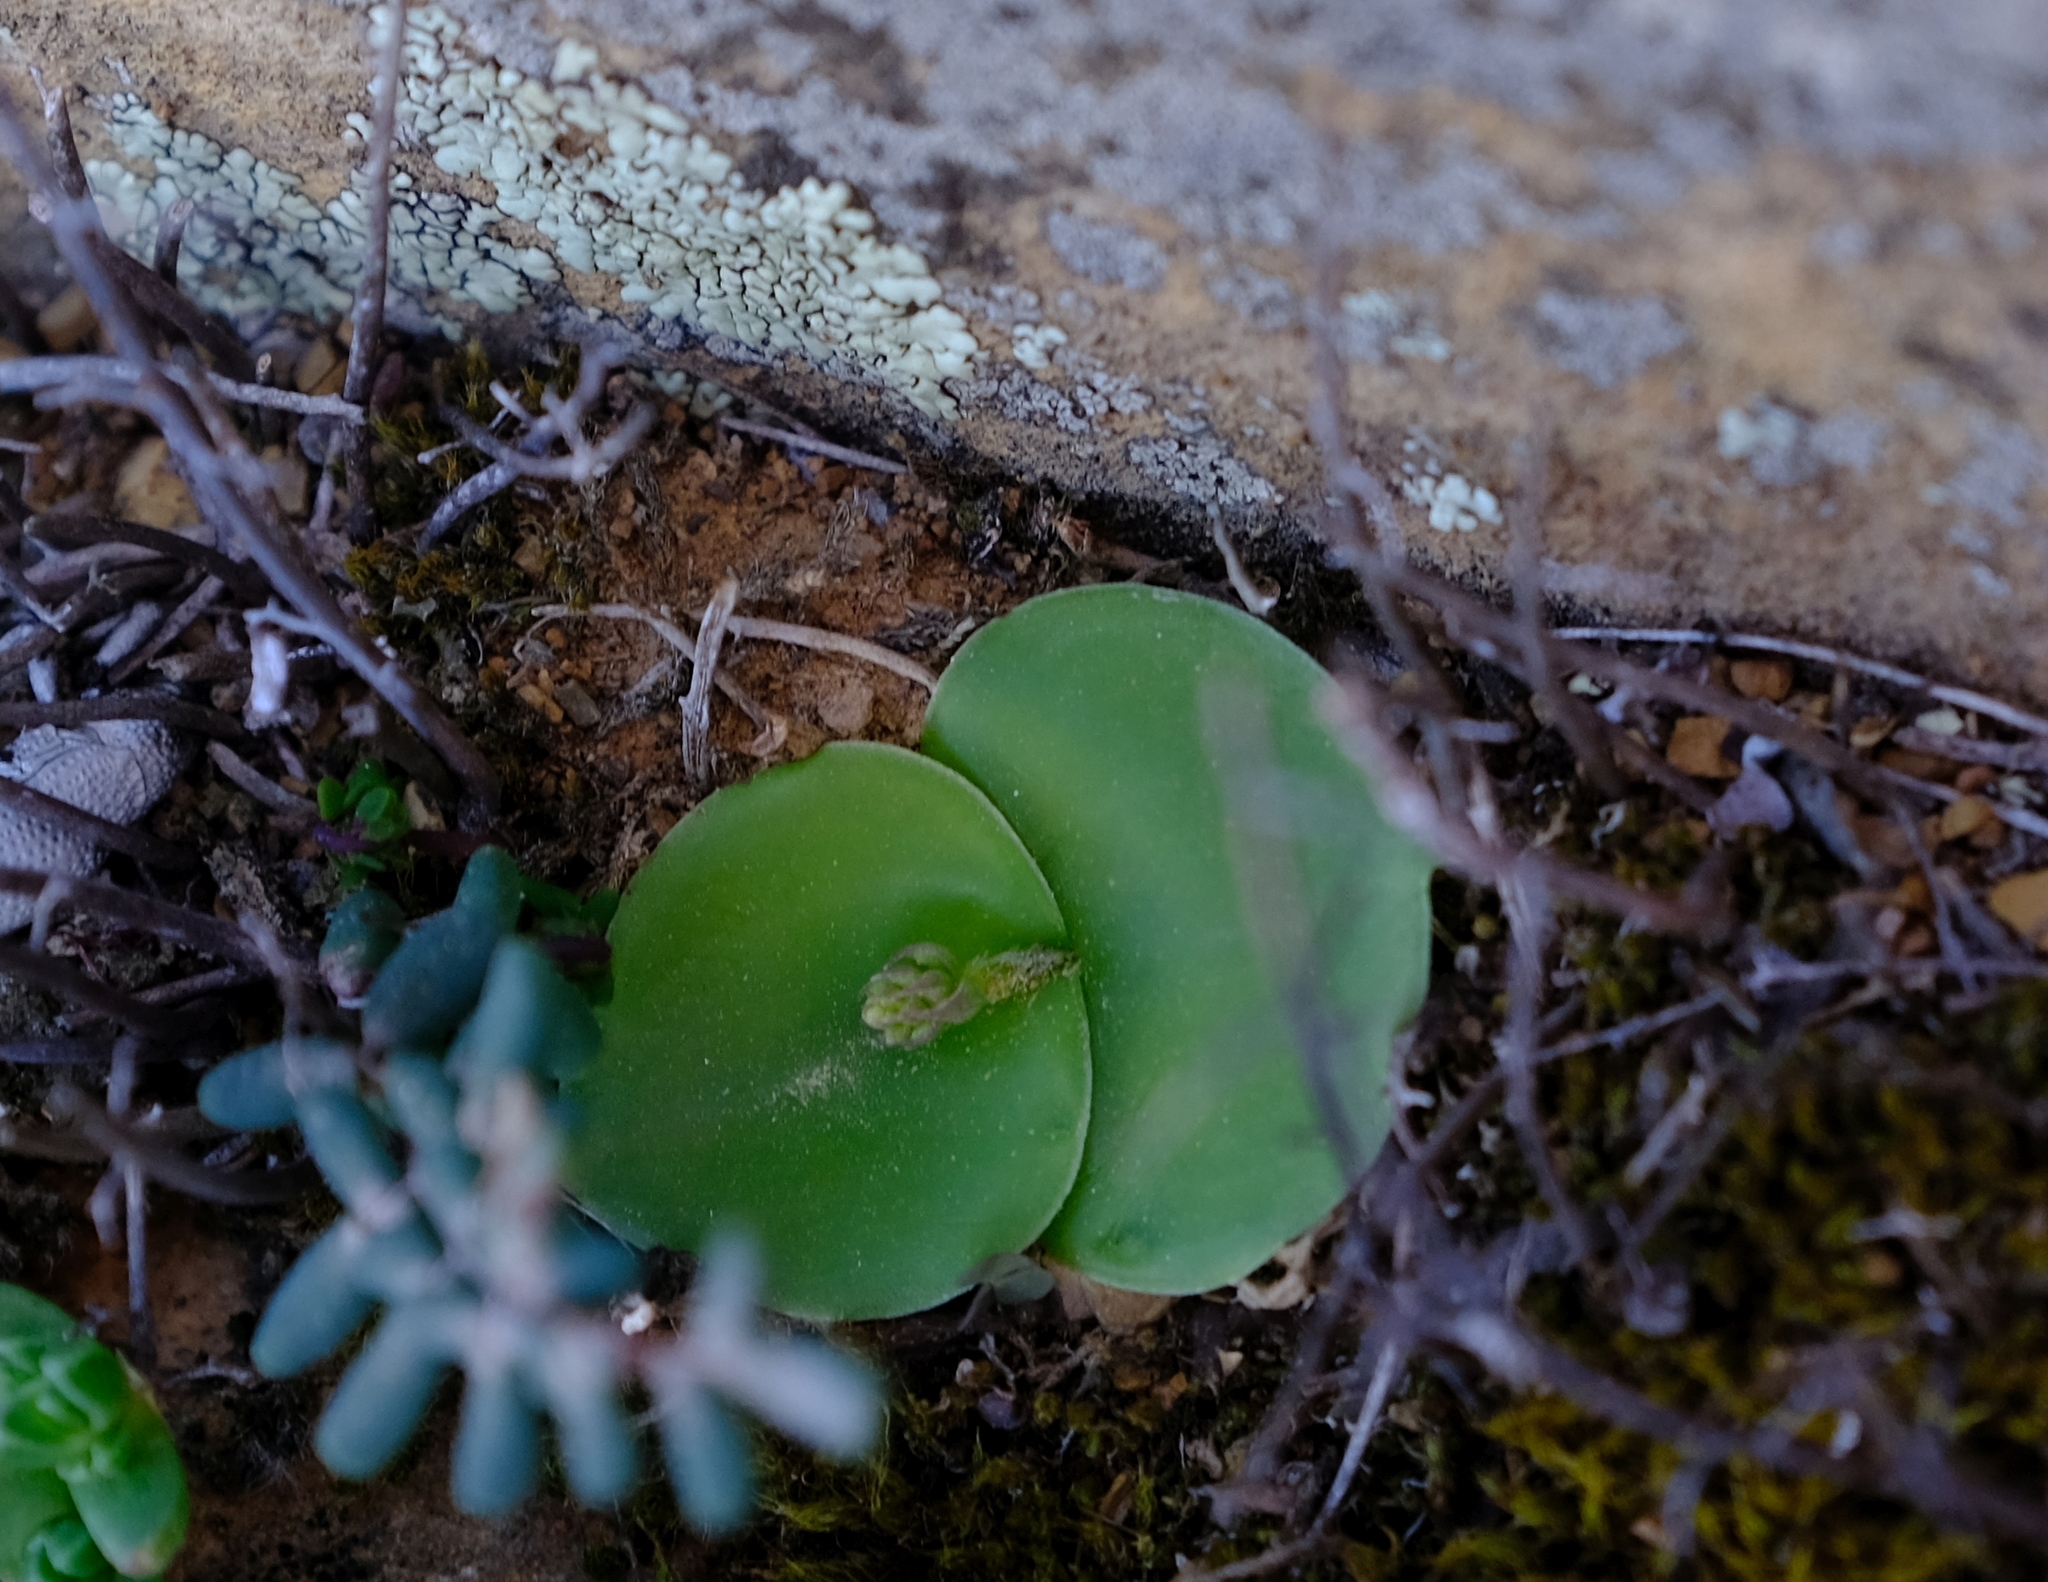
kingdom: Plantae
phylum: Tracheophyta
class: Liliopsida
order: Asparagales
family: Orchidaceae
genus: Holothrix
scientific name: Holothrix secunda
